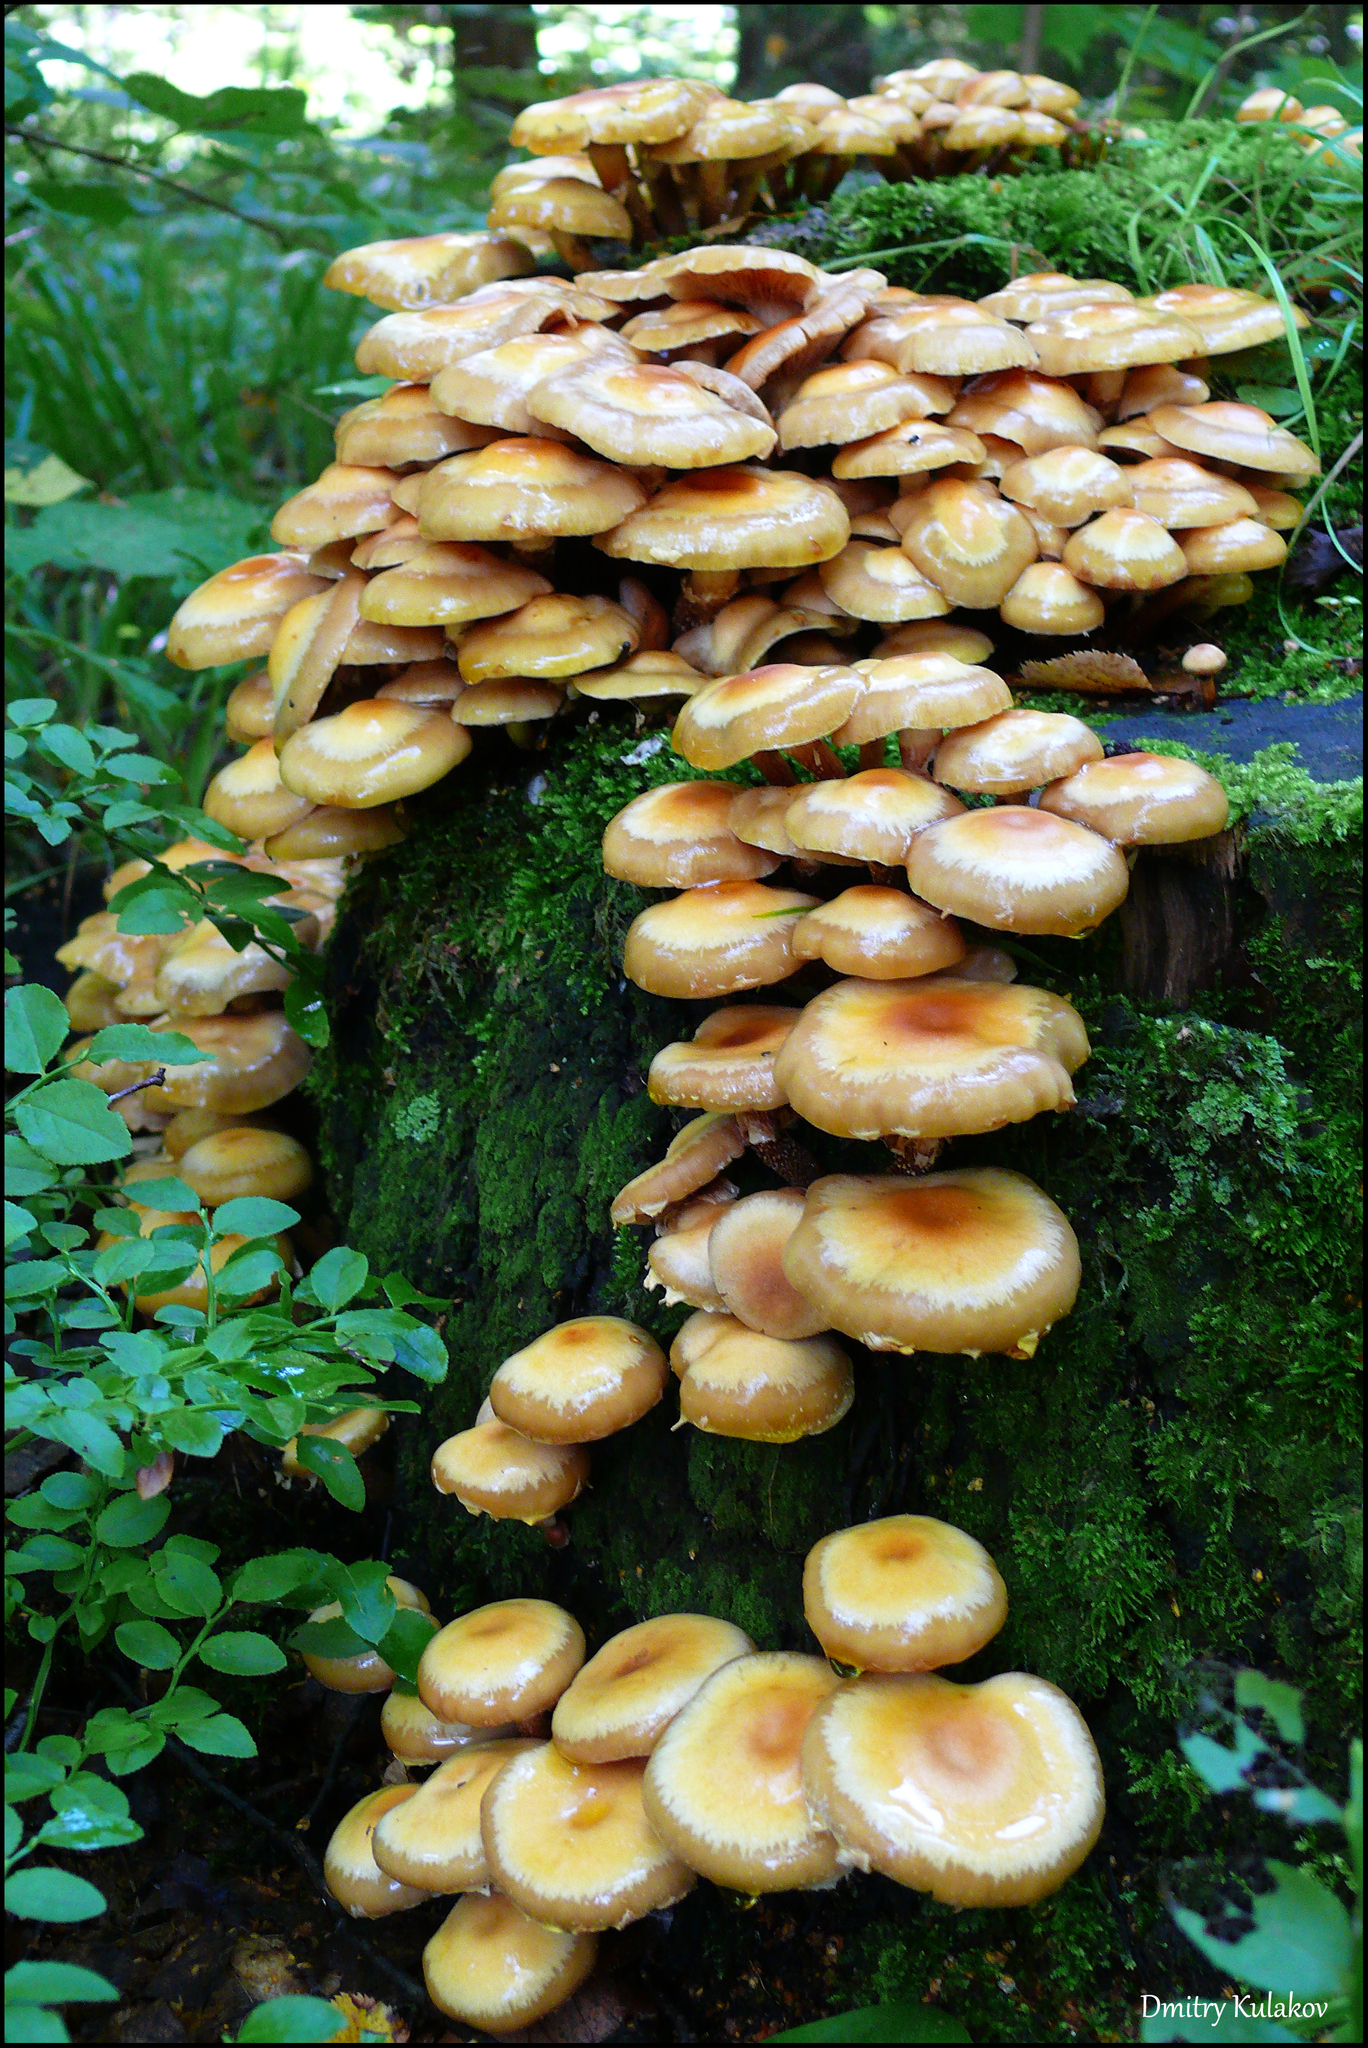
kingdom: Fungi
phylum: Basidiomycota
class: Agaricomycetes
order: Agaricales
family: Strophariaceae
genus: Kuehneromyces
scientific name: Kuehneromyces mutabilis
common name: Sheathed woodtuft
